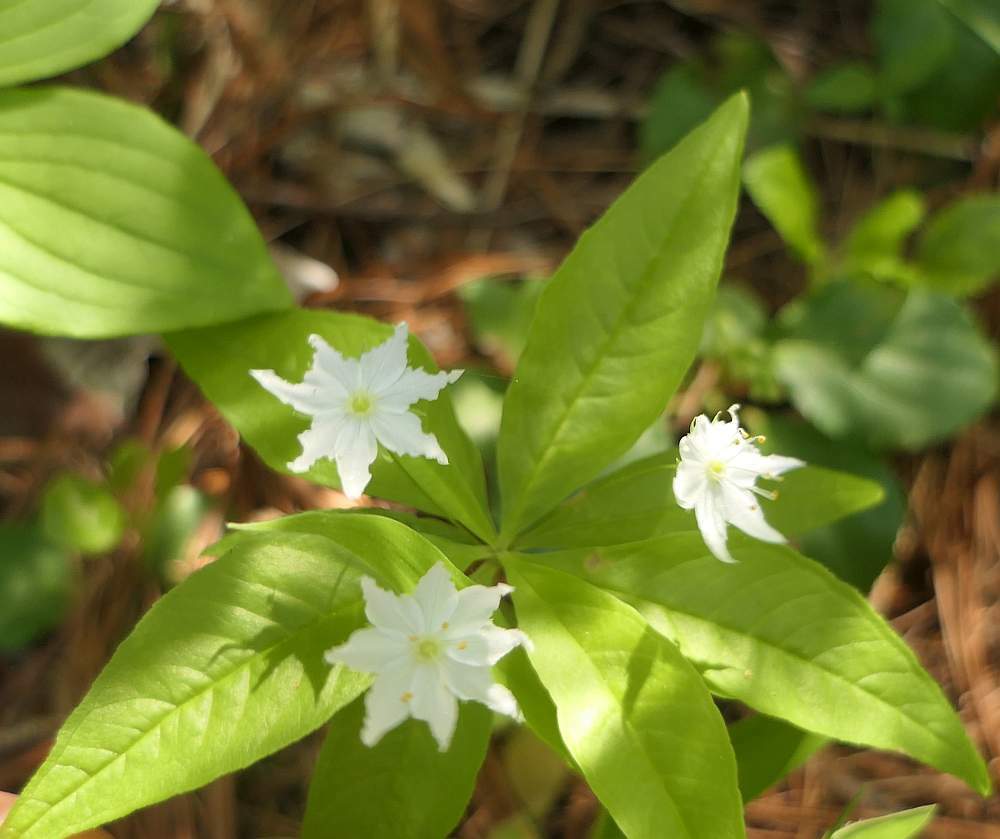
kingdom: Plantae
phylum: Tracheophyta
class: Magnoliopsida
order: Ericales
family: Primulaceae
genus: Lysimachia
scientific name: Lysimachia borealis
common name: American starflower
